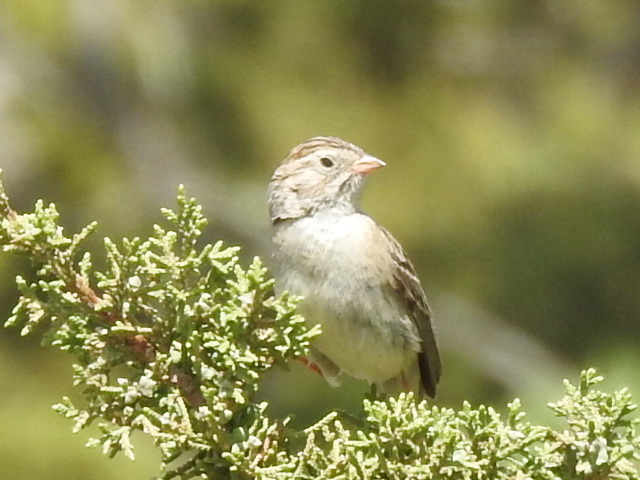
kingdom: Animalia
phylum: Chordata
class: Aves
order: Passeriformes
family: Passerellidae
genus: Spizella
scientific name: Spizella breweri
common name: Brewer's sparrow
